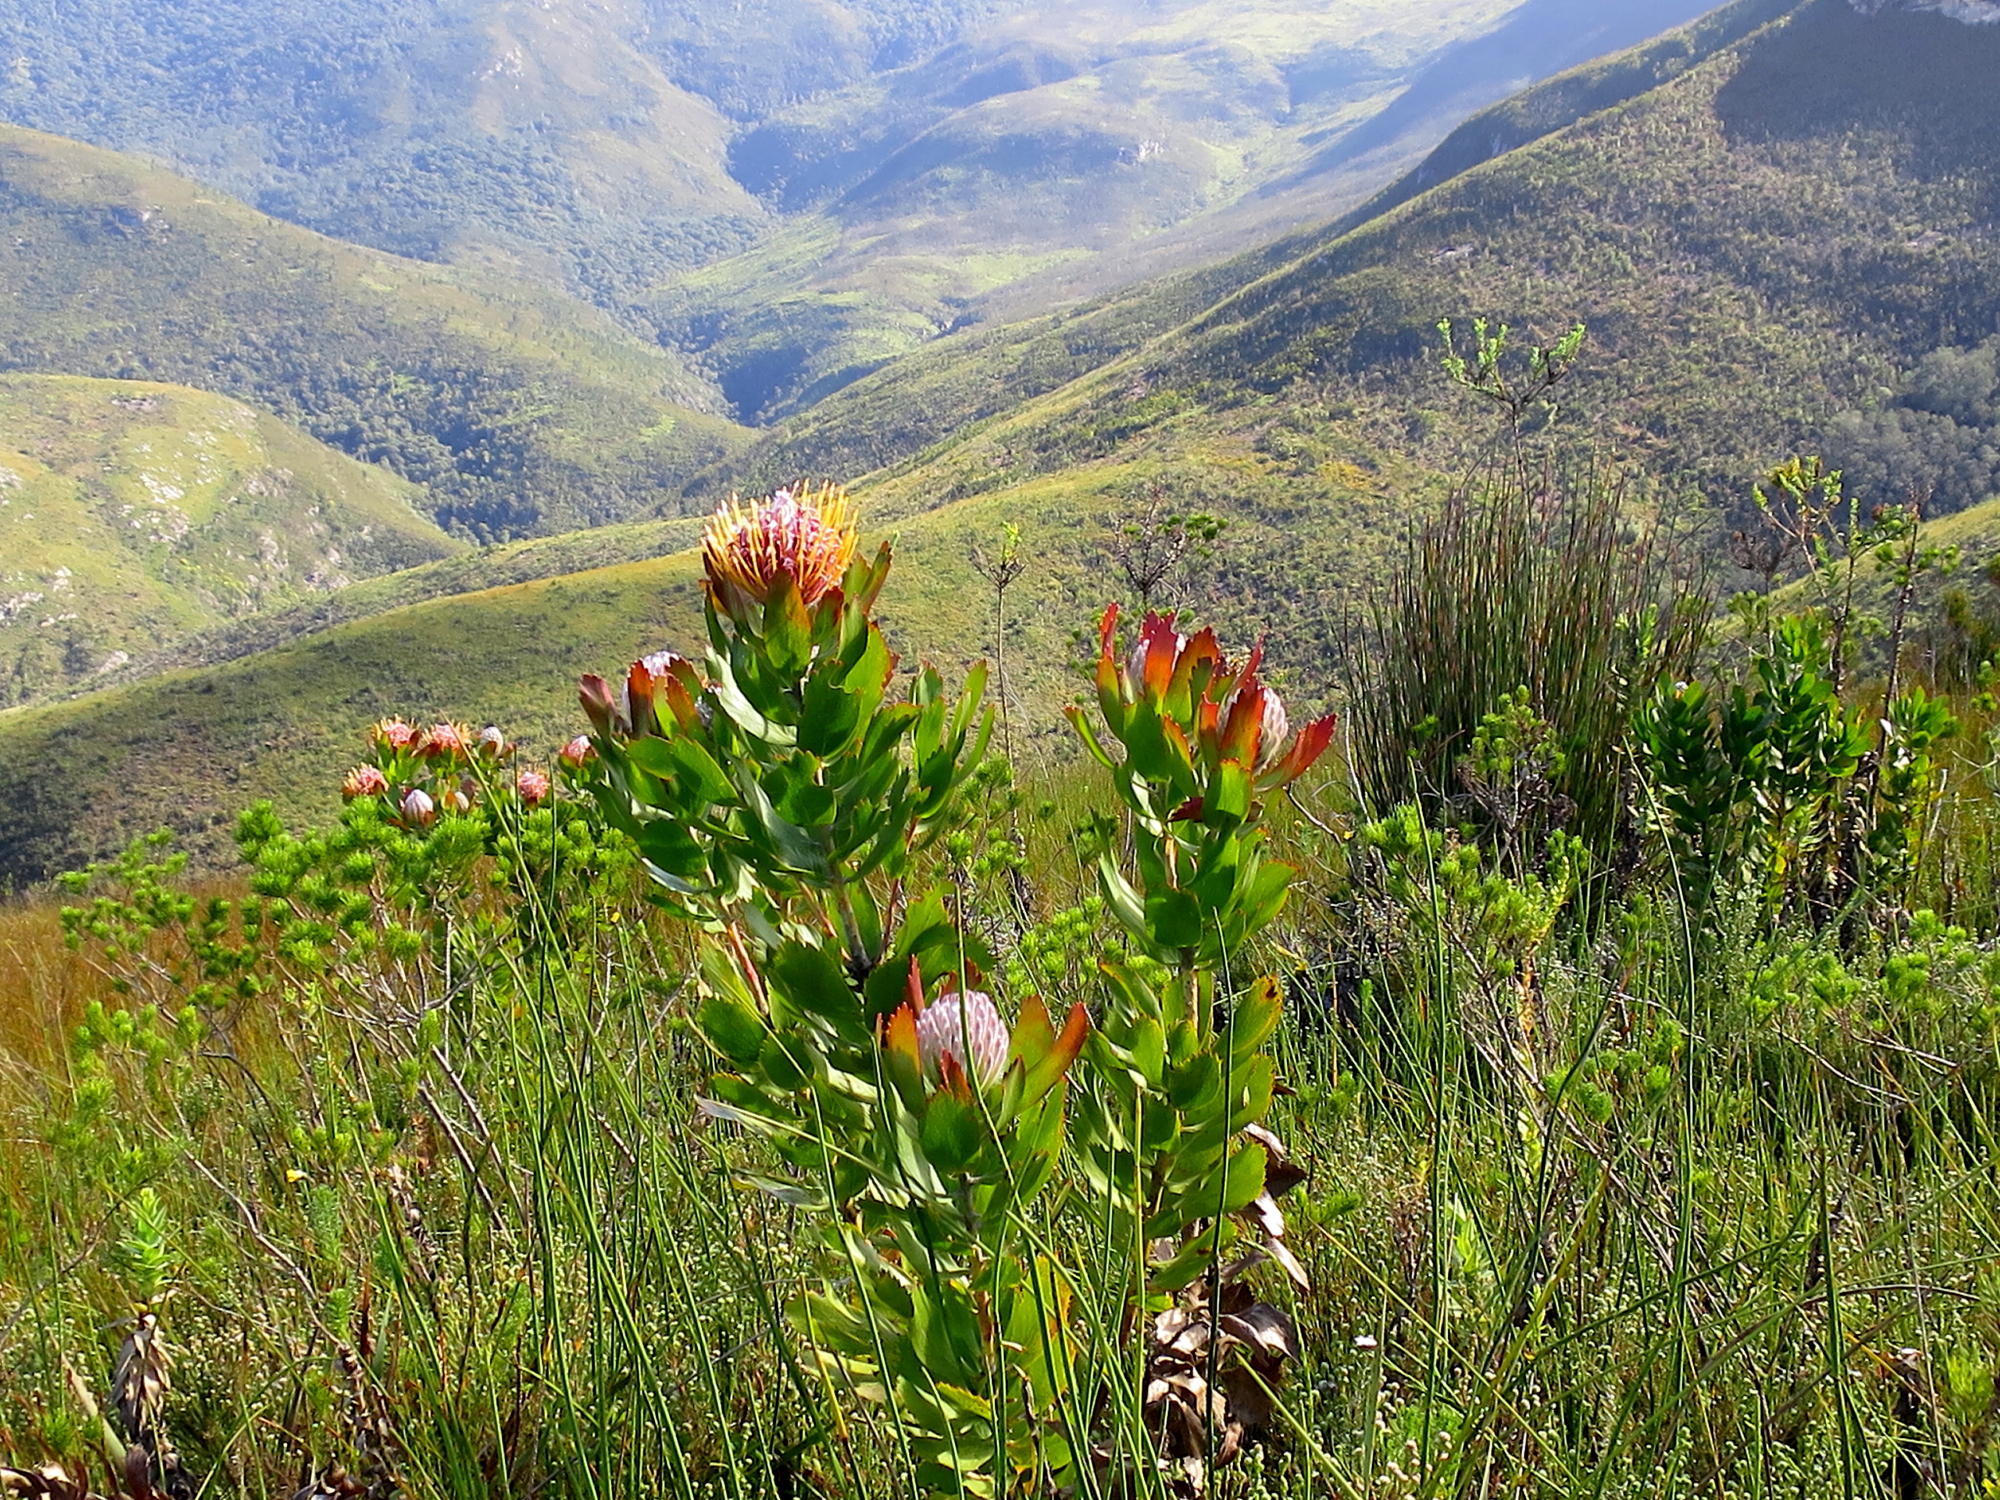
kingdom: Plantae
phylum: Tracheophyta
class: Magnoliopsida
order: Proteales
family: Proteaceae
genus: Leucospermum
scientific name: Leucospermum glabrum
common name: Outeniqua pincushion
